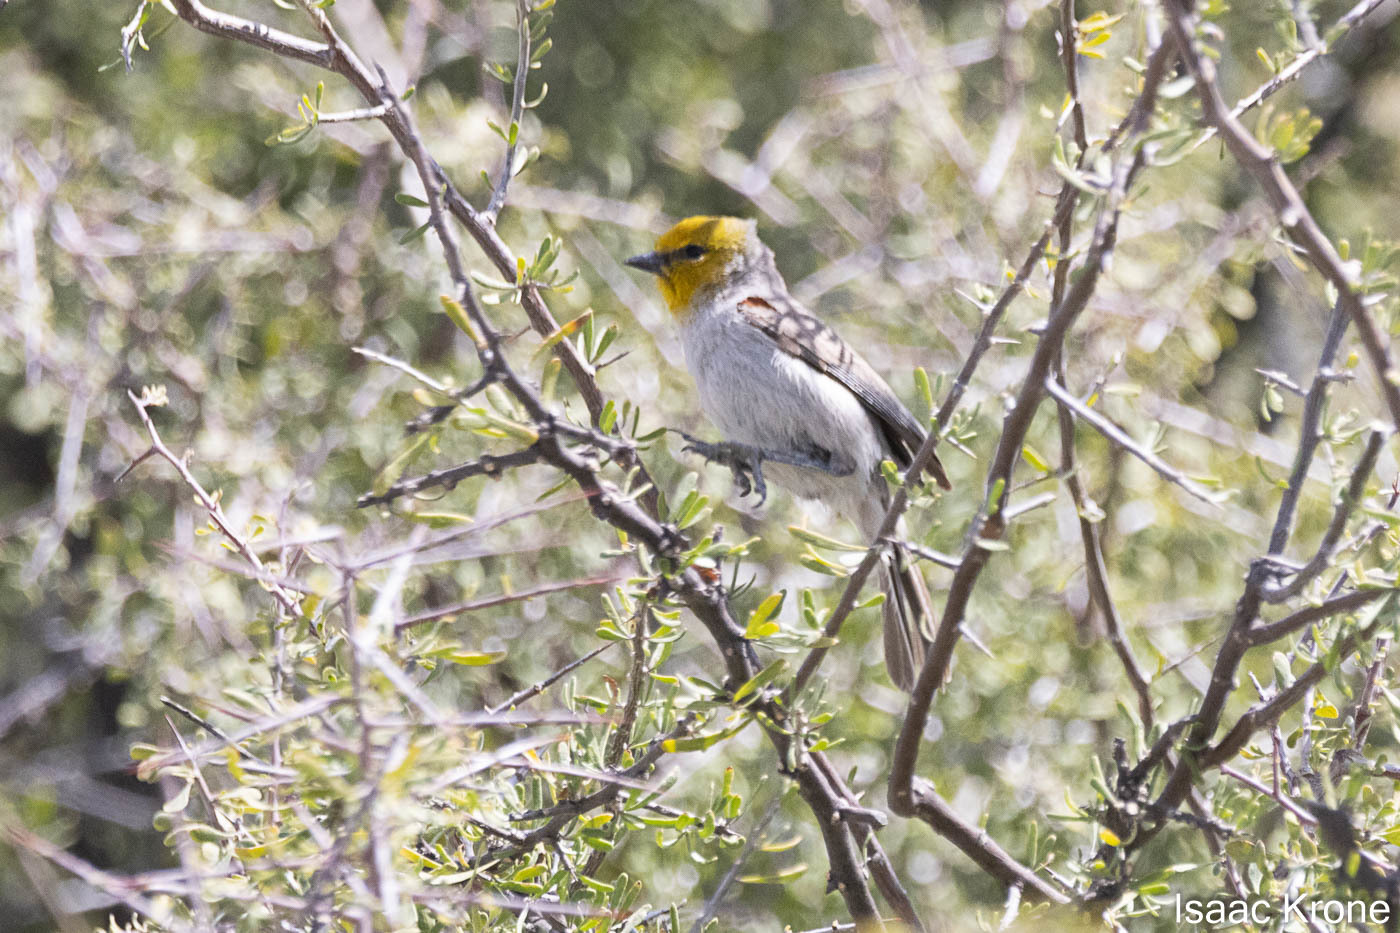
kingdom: Animalia
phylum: Chordata
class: Aves
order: Passeriformes
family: Remizidae
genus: Auriparus
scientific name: Auriparus flaviceps
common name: Verdin
